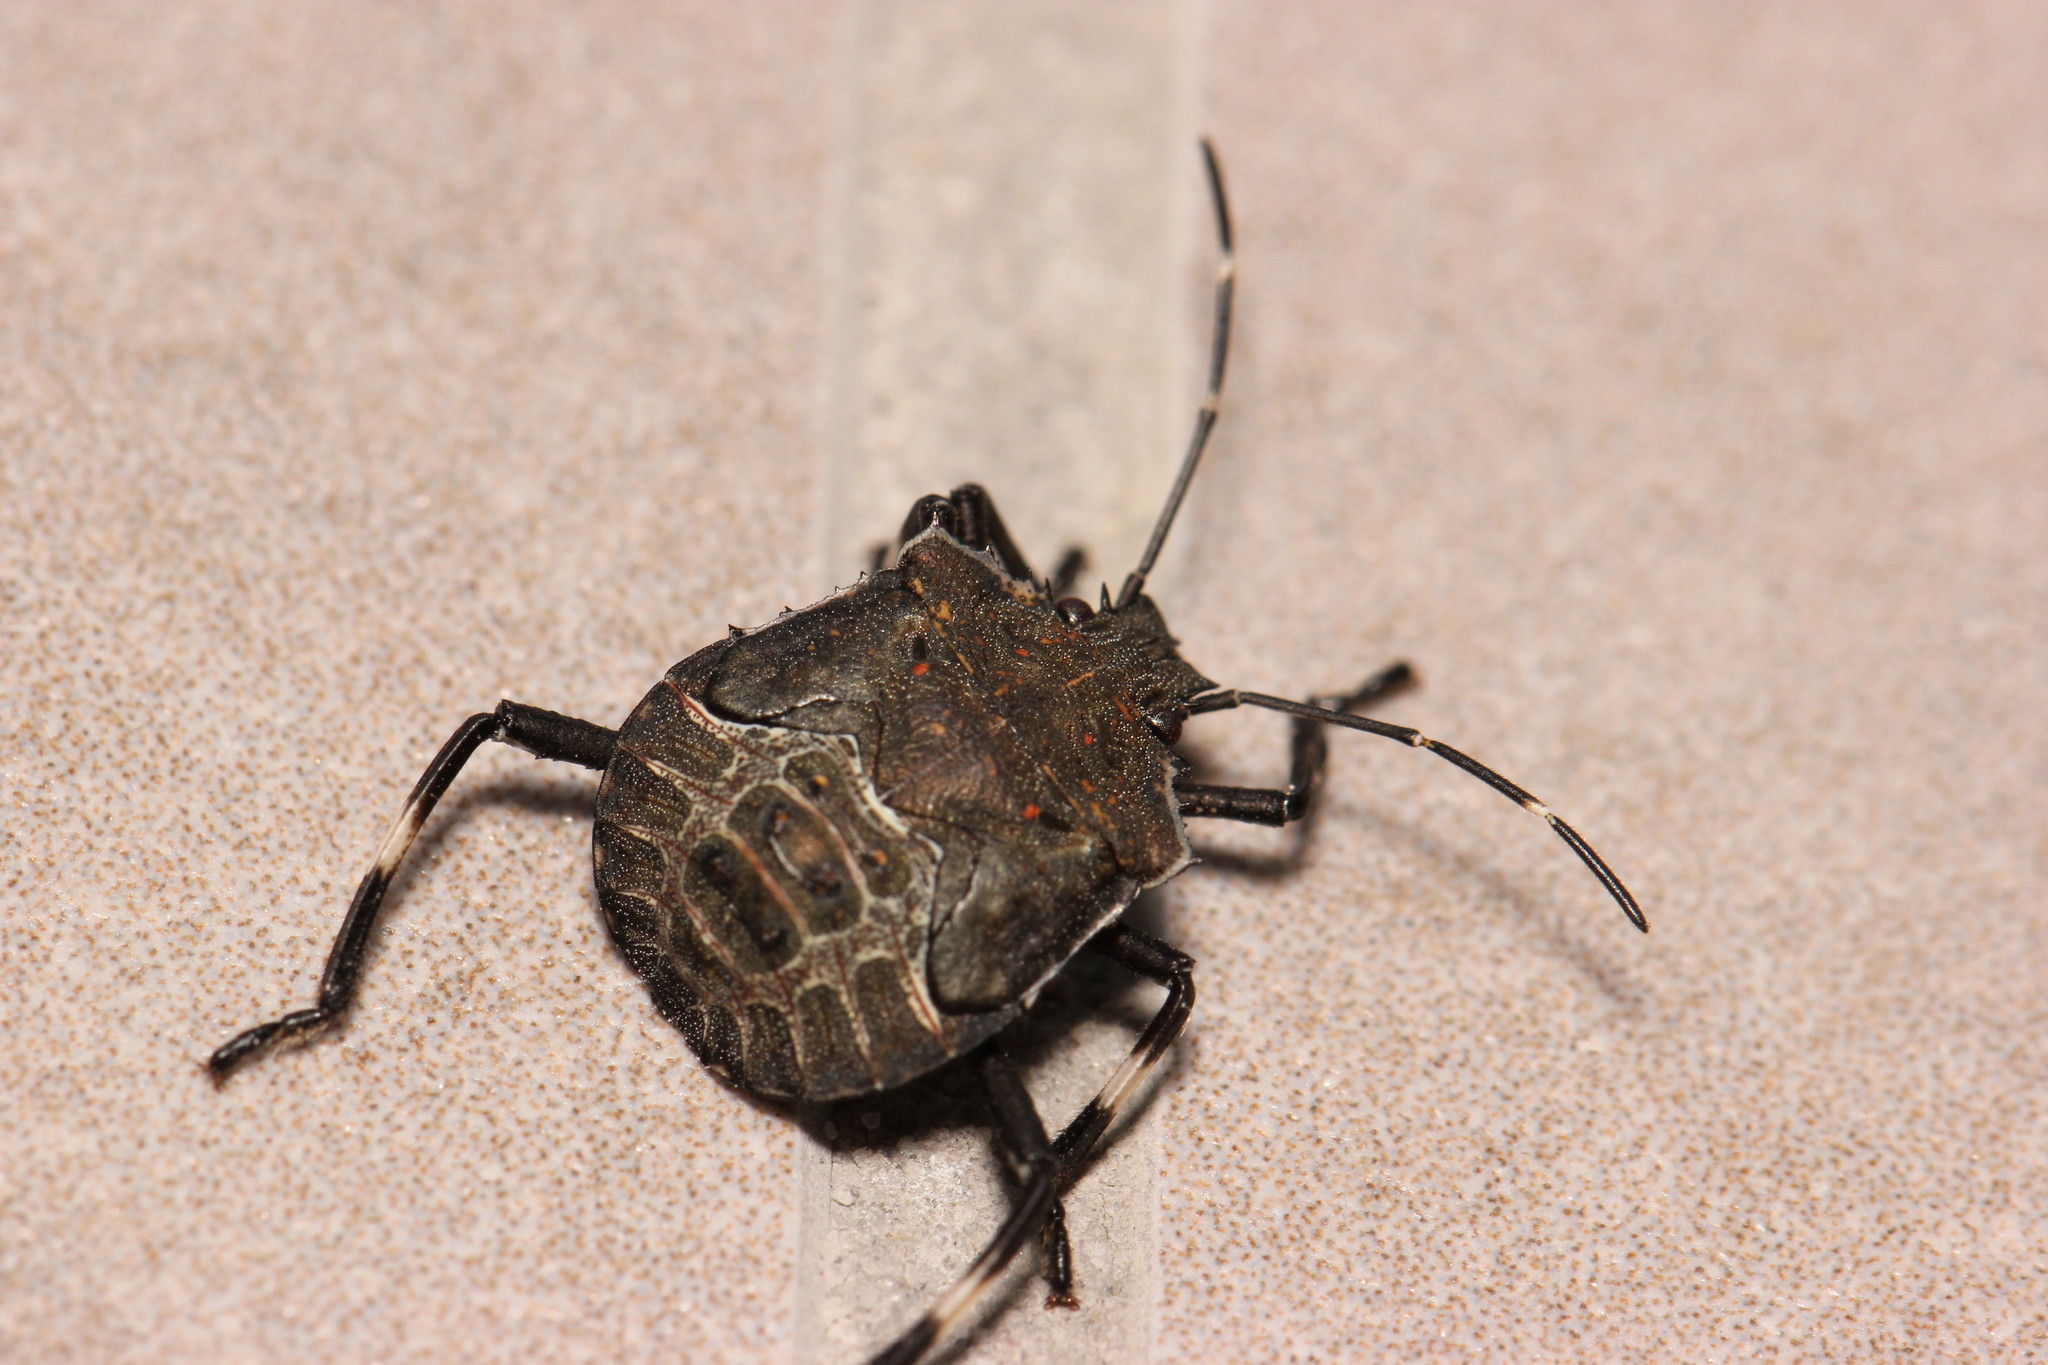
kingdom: Animalia
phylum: Arthropoda
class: Insecta
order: Hemiptera
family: Pentatomidae
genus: Halyomorpha
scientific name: Halyomorpha halys
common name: Brown marmorated stink bug
